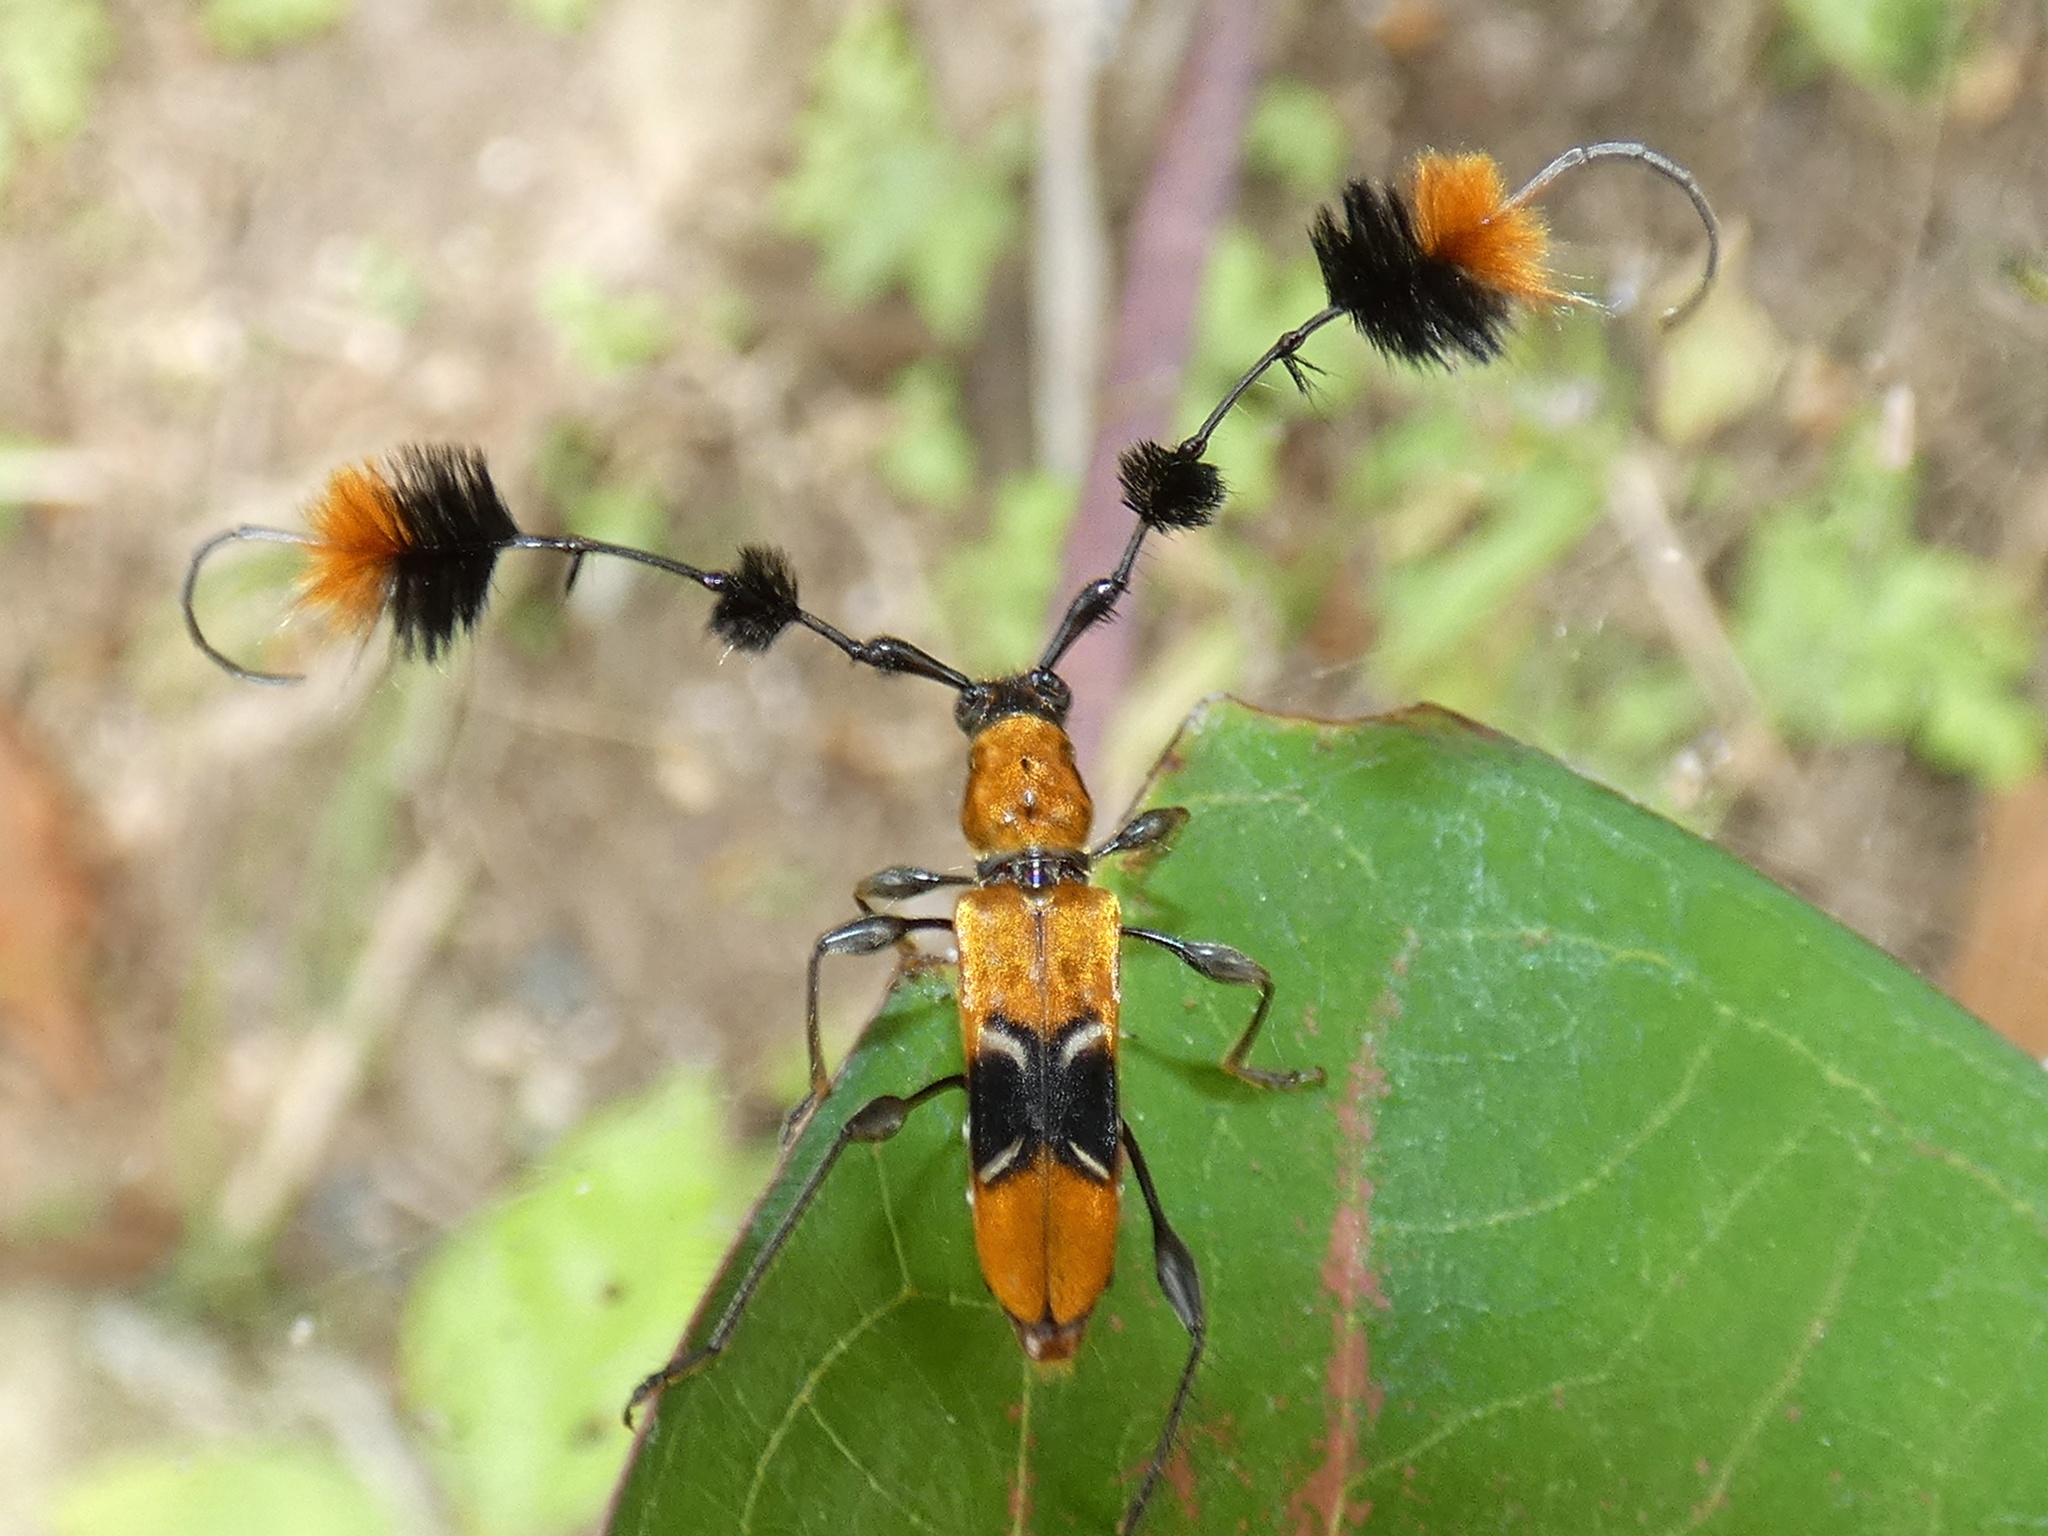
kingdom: Animalia
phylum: Arthropoda
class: Insecta
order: Coleoptera
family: Cerambycidae
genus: Cosmisoma
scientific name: Cosmisoma plumicorne
